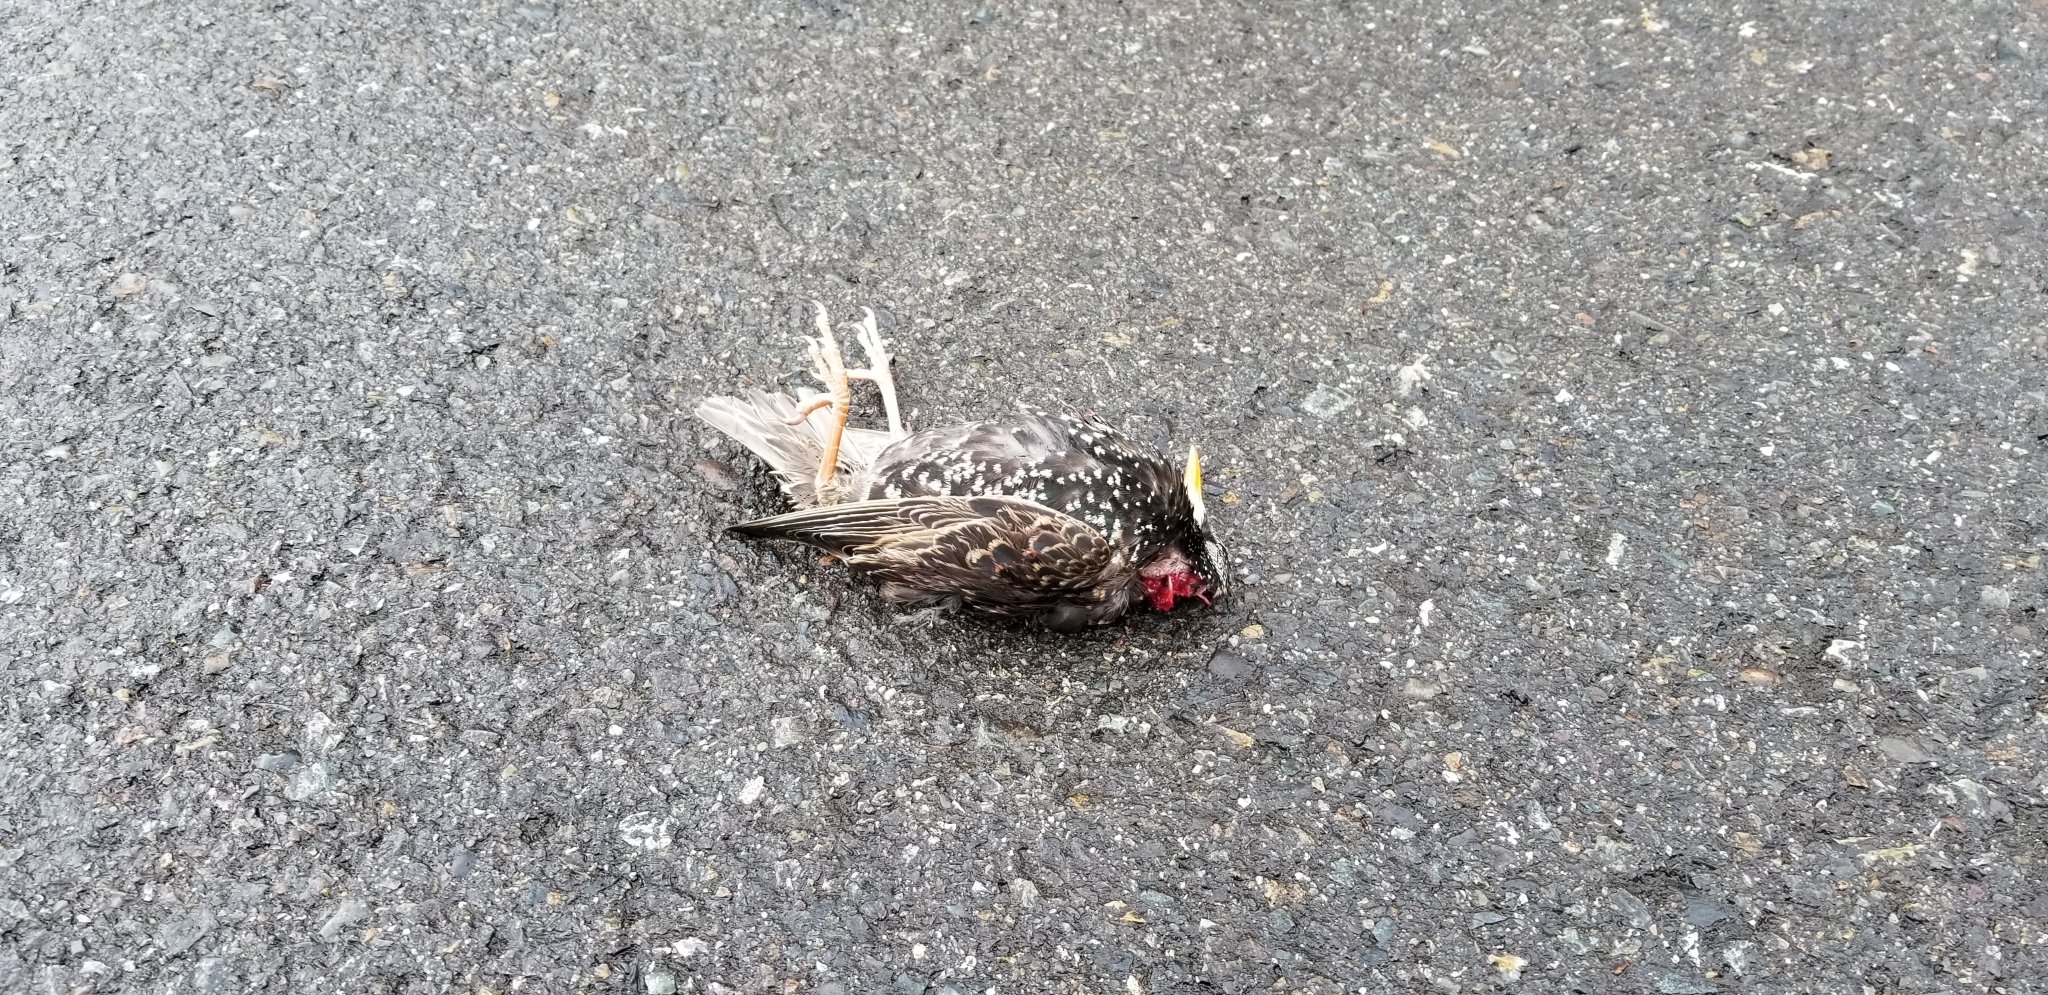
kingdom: Animalia
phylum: Chordata
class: Aves
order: Passeriformes
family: Sturnidae
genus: Sturnus
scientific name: Sturnus vulgaris
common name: Common starling
